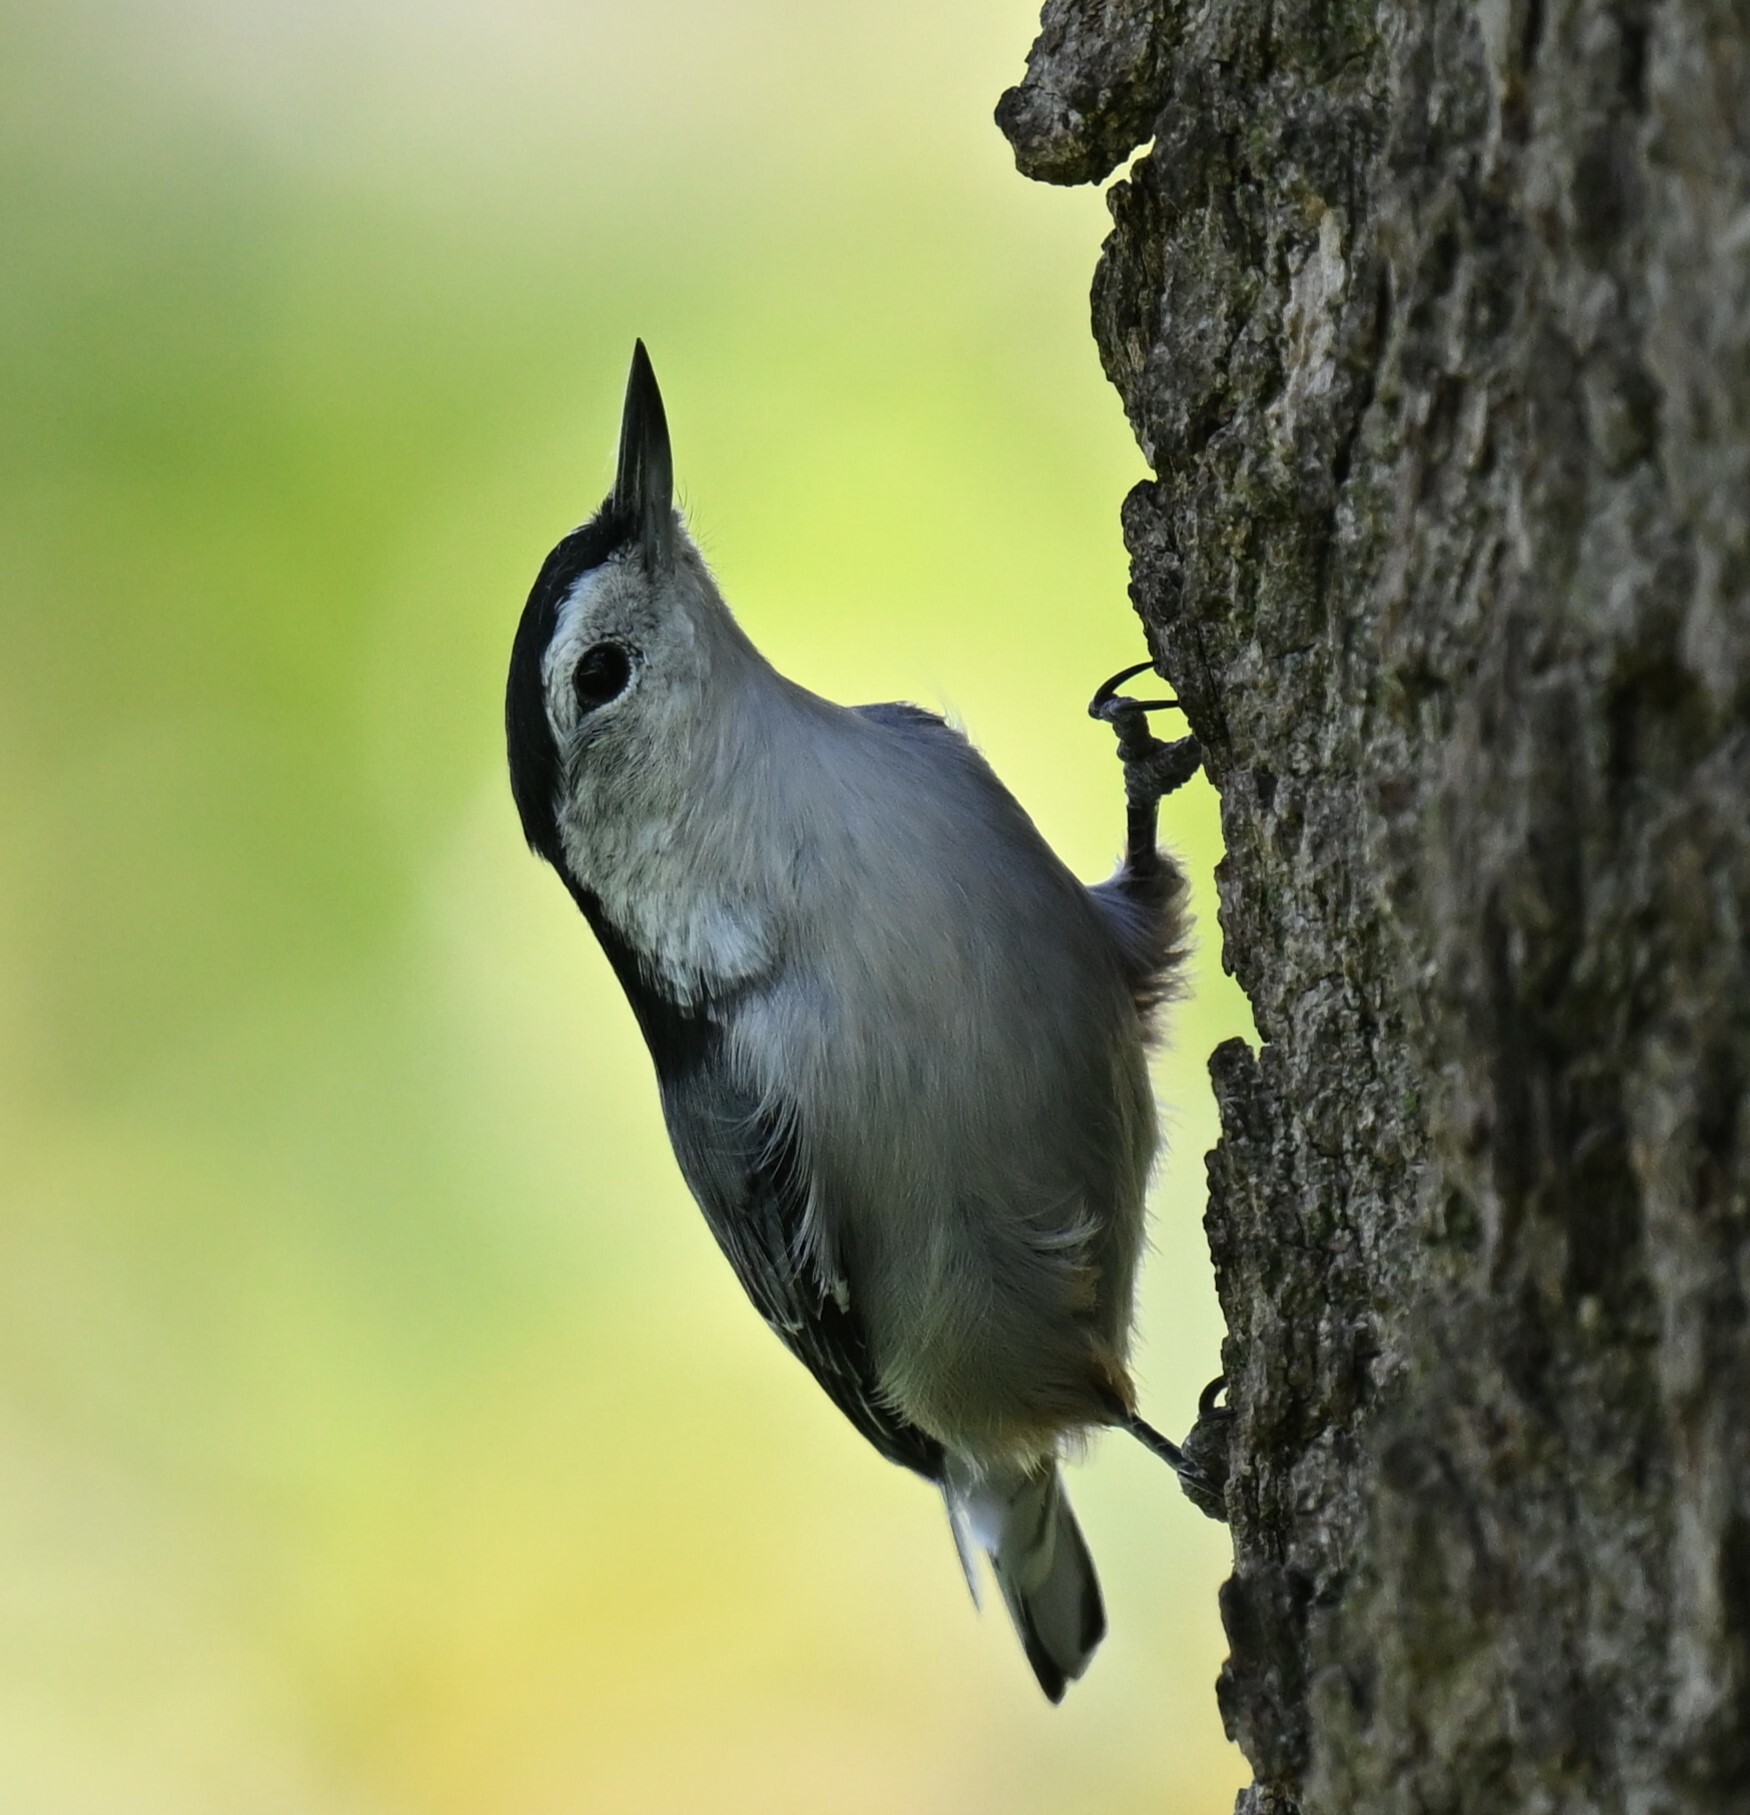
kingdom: Animalia
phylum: Chordata
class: Aves
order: Passeriformes
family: Sittidae
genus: Sitta
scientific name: Sitta carolinensis
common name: White-breasted nuthatch
